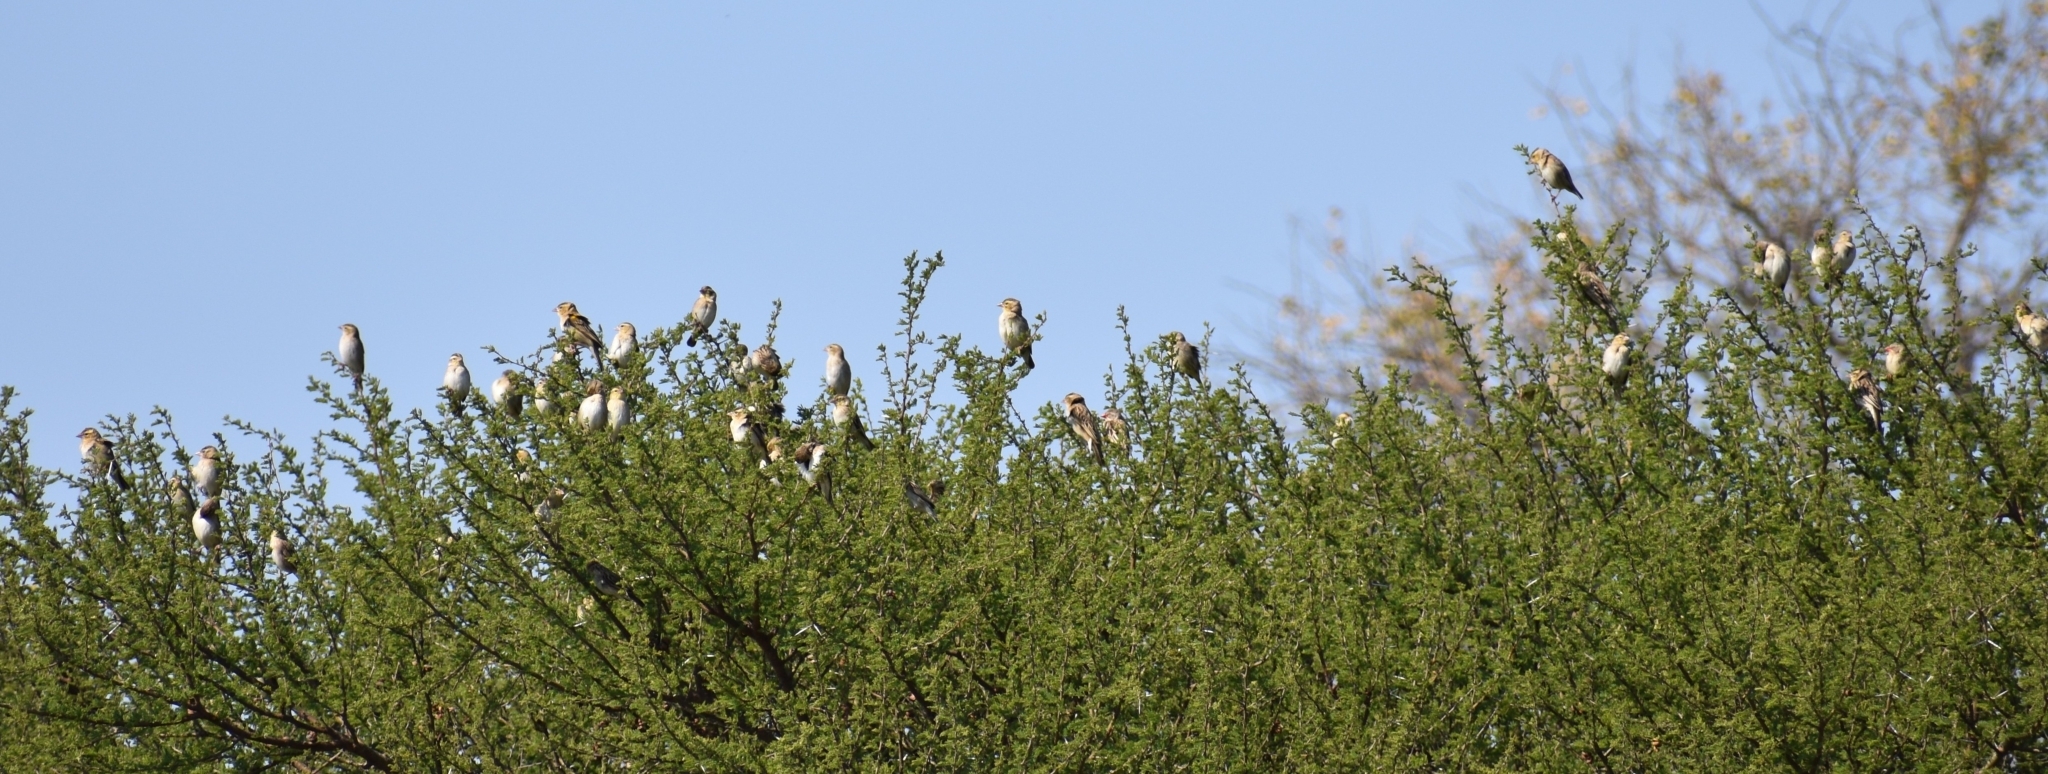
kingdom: Animalia
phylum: Chordata
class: Aves
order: Passeriformes
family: Ploceidae
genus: Quelea
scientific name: Quelea quelea
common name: Red-billed quelea
